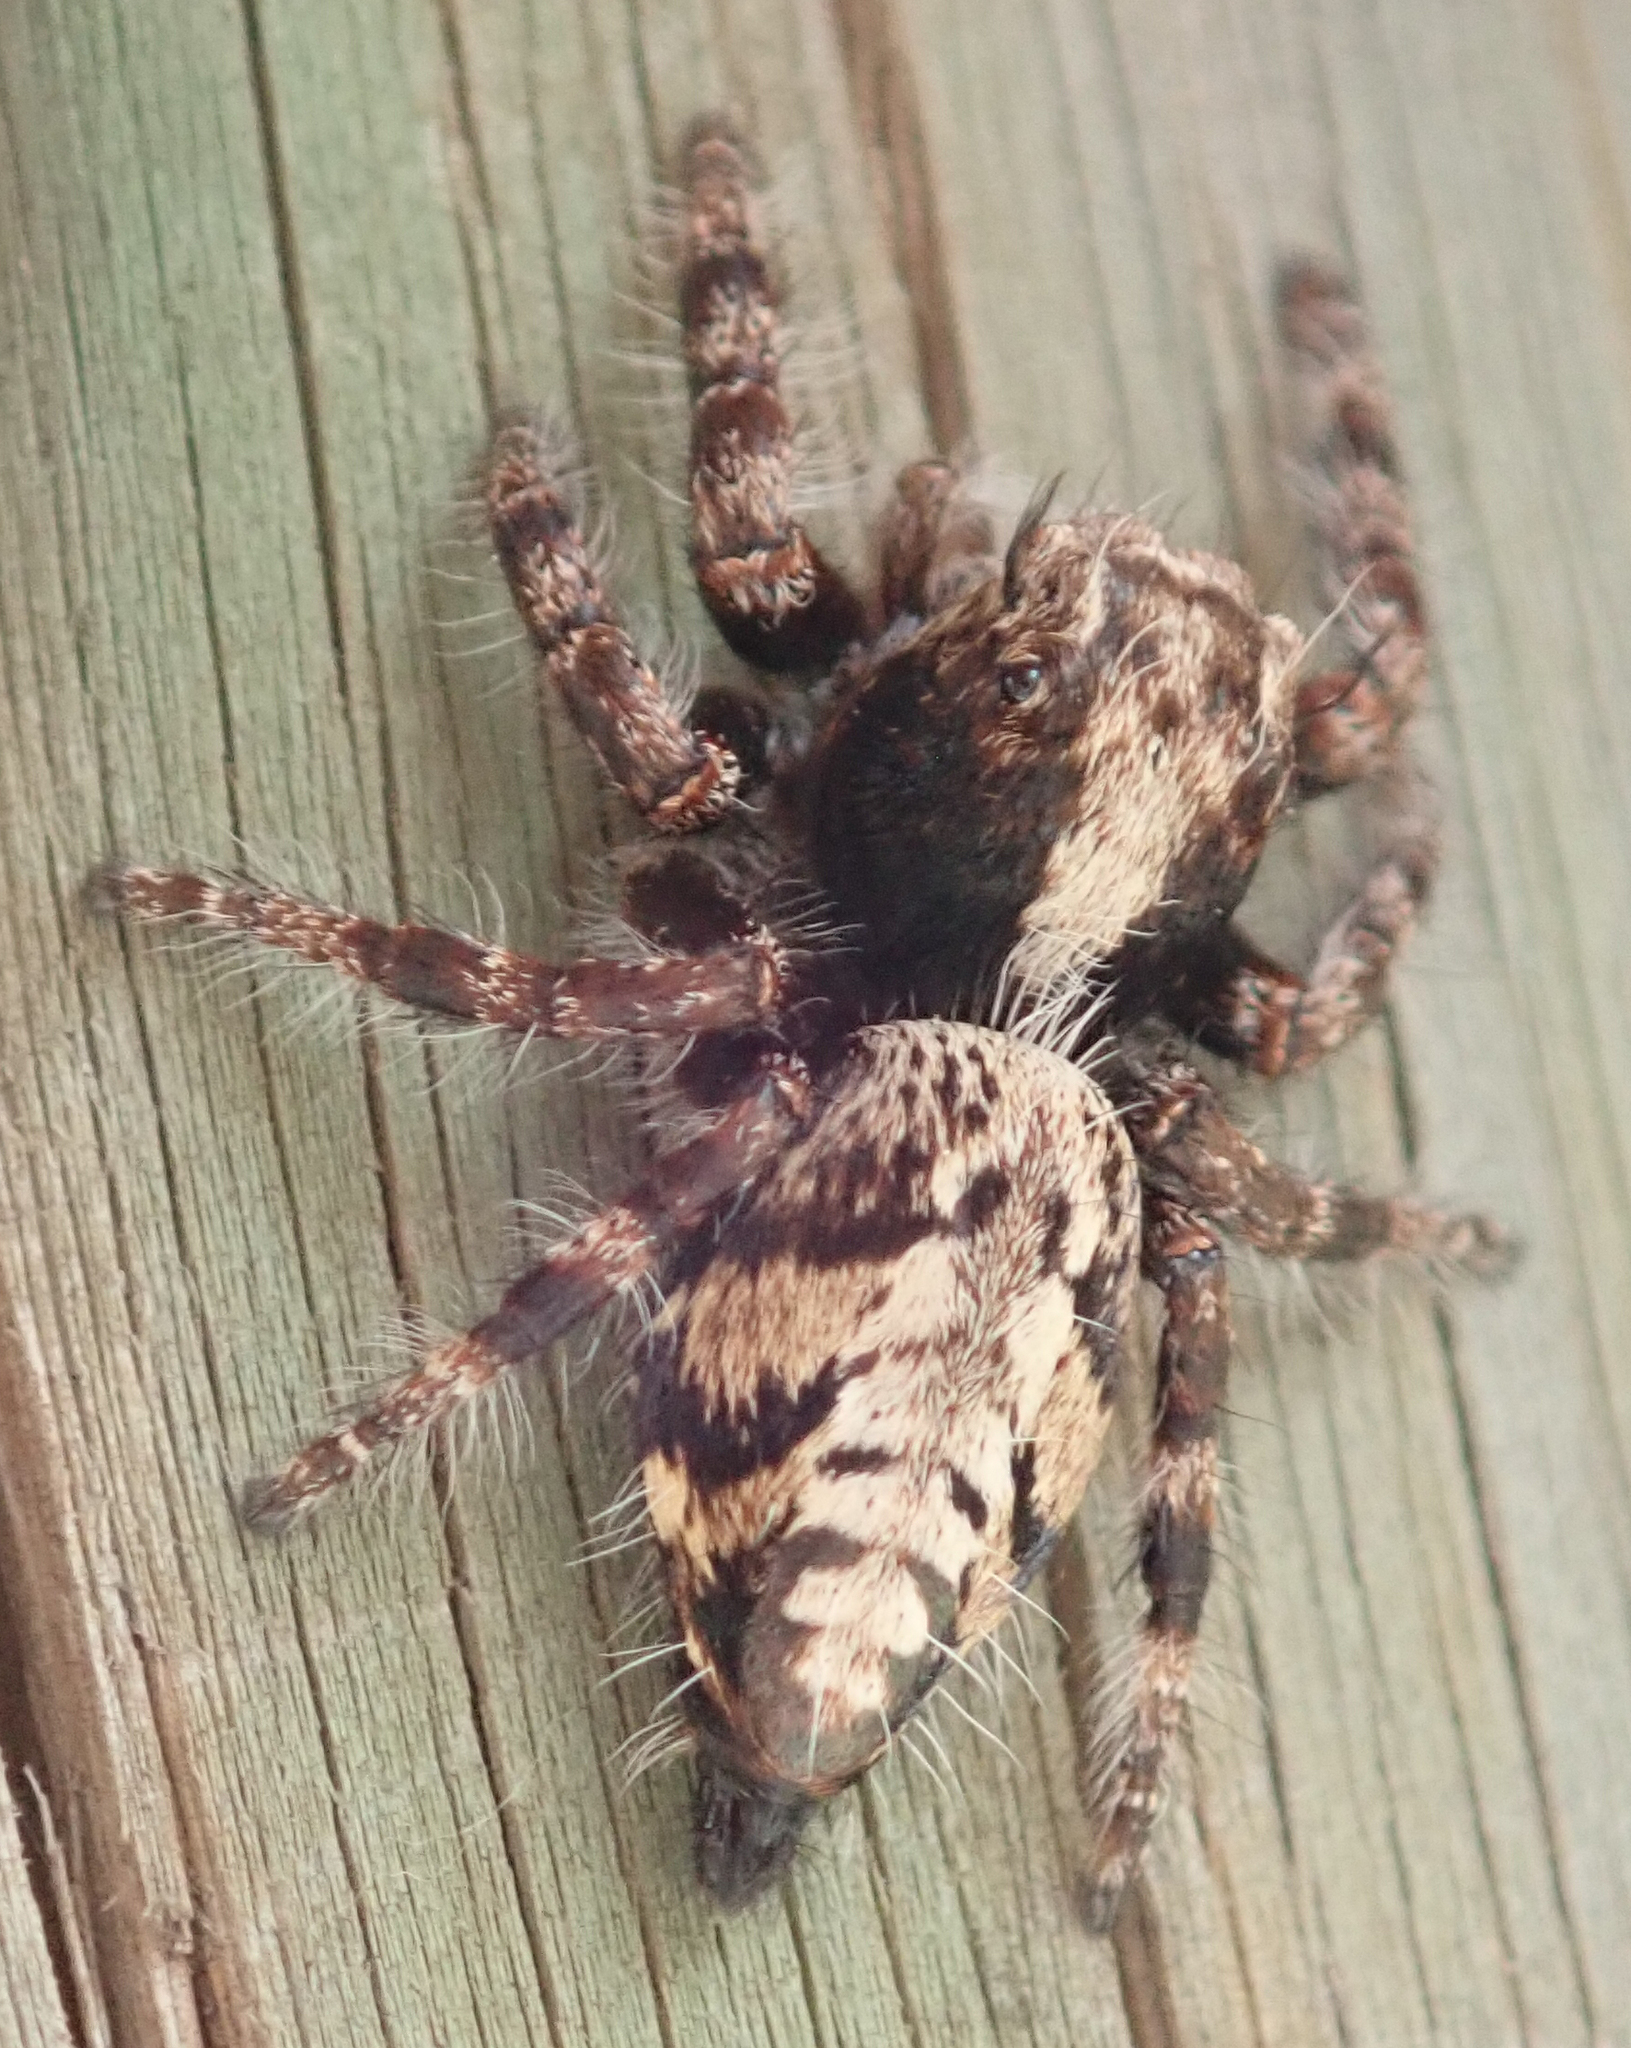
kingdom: Animalia
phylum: Arthropoda
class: Arachnida
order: Araneae
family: Salticidae
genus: Hyllus
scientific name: Hyllus brevitarsis
